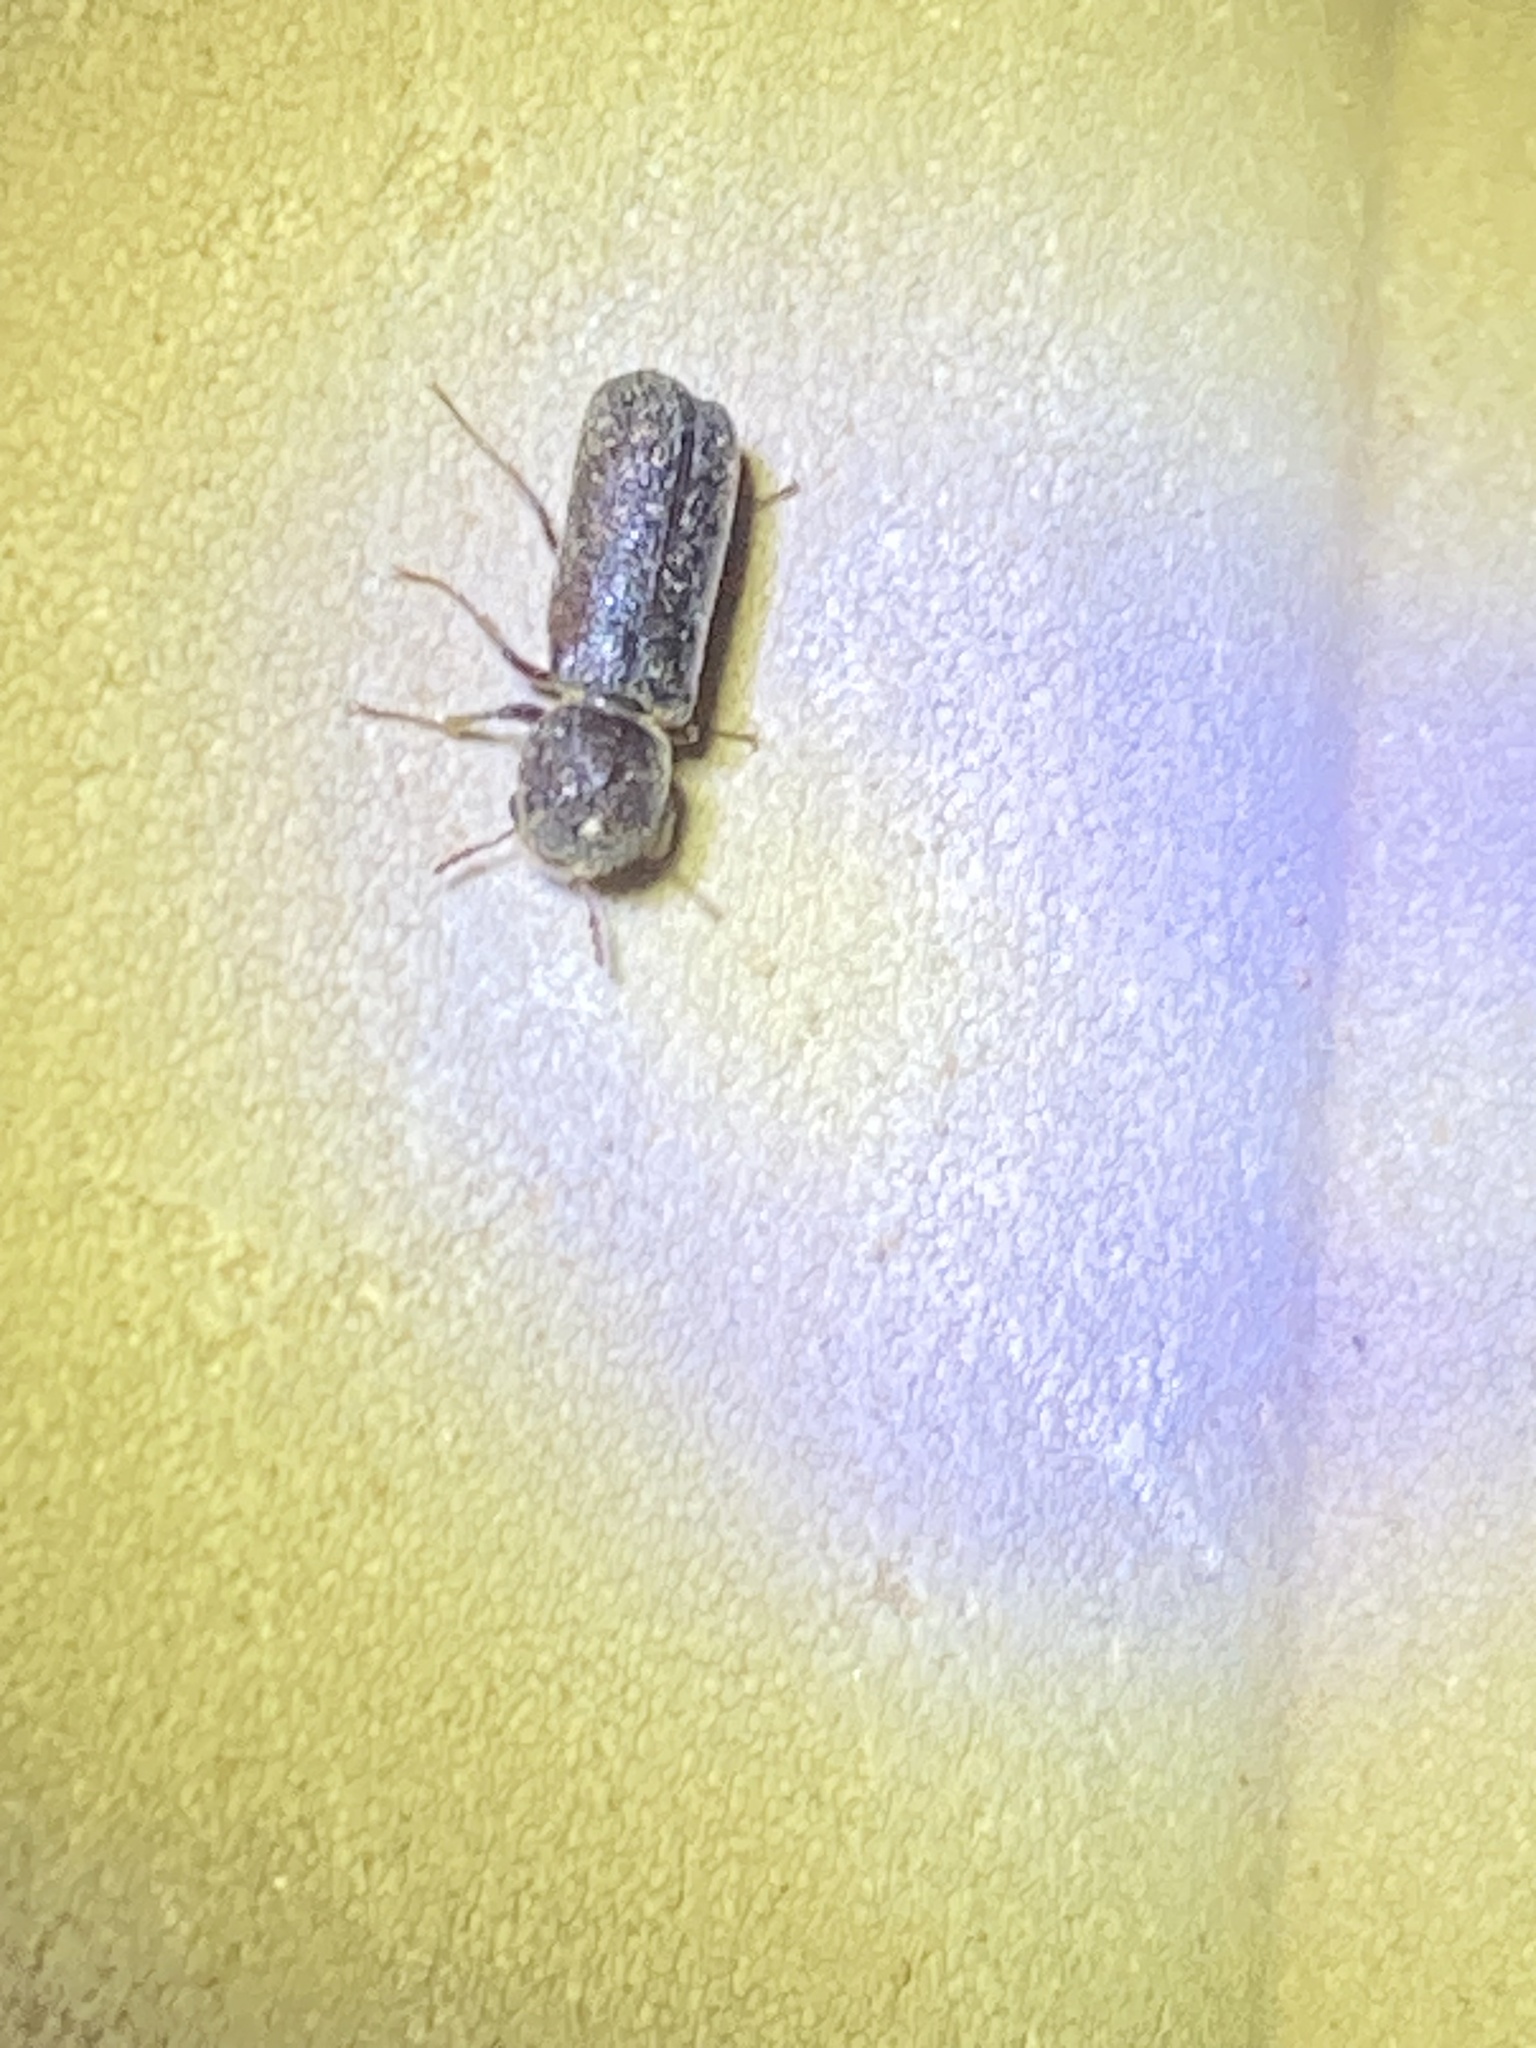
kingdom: Animalia
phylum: Arthropoda
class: Insecta
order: Coleoptera
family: Bostrichidae
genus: Amphicerus
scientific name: Amphicerus bicaudatus
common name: Apple twig borer
